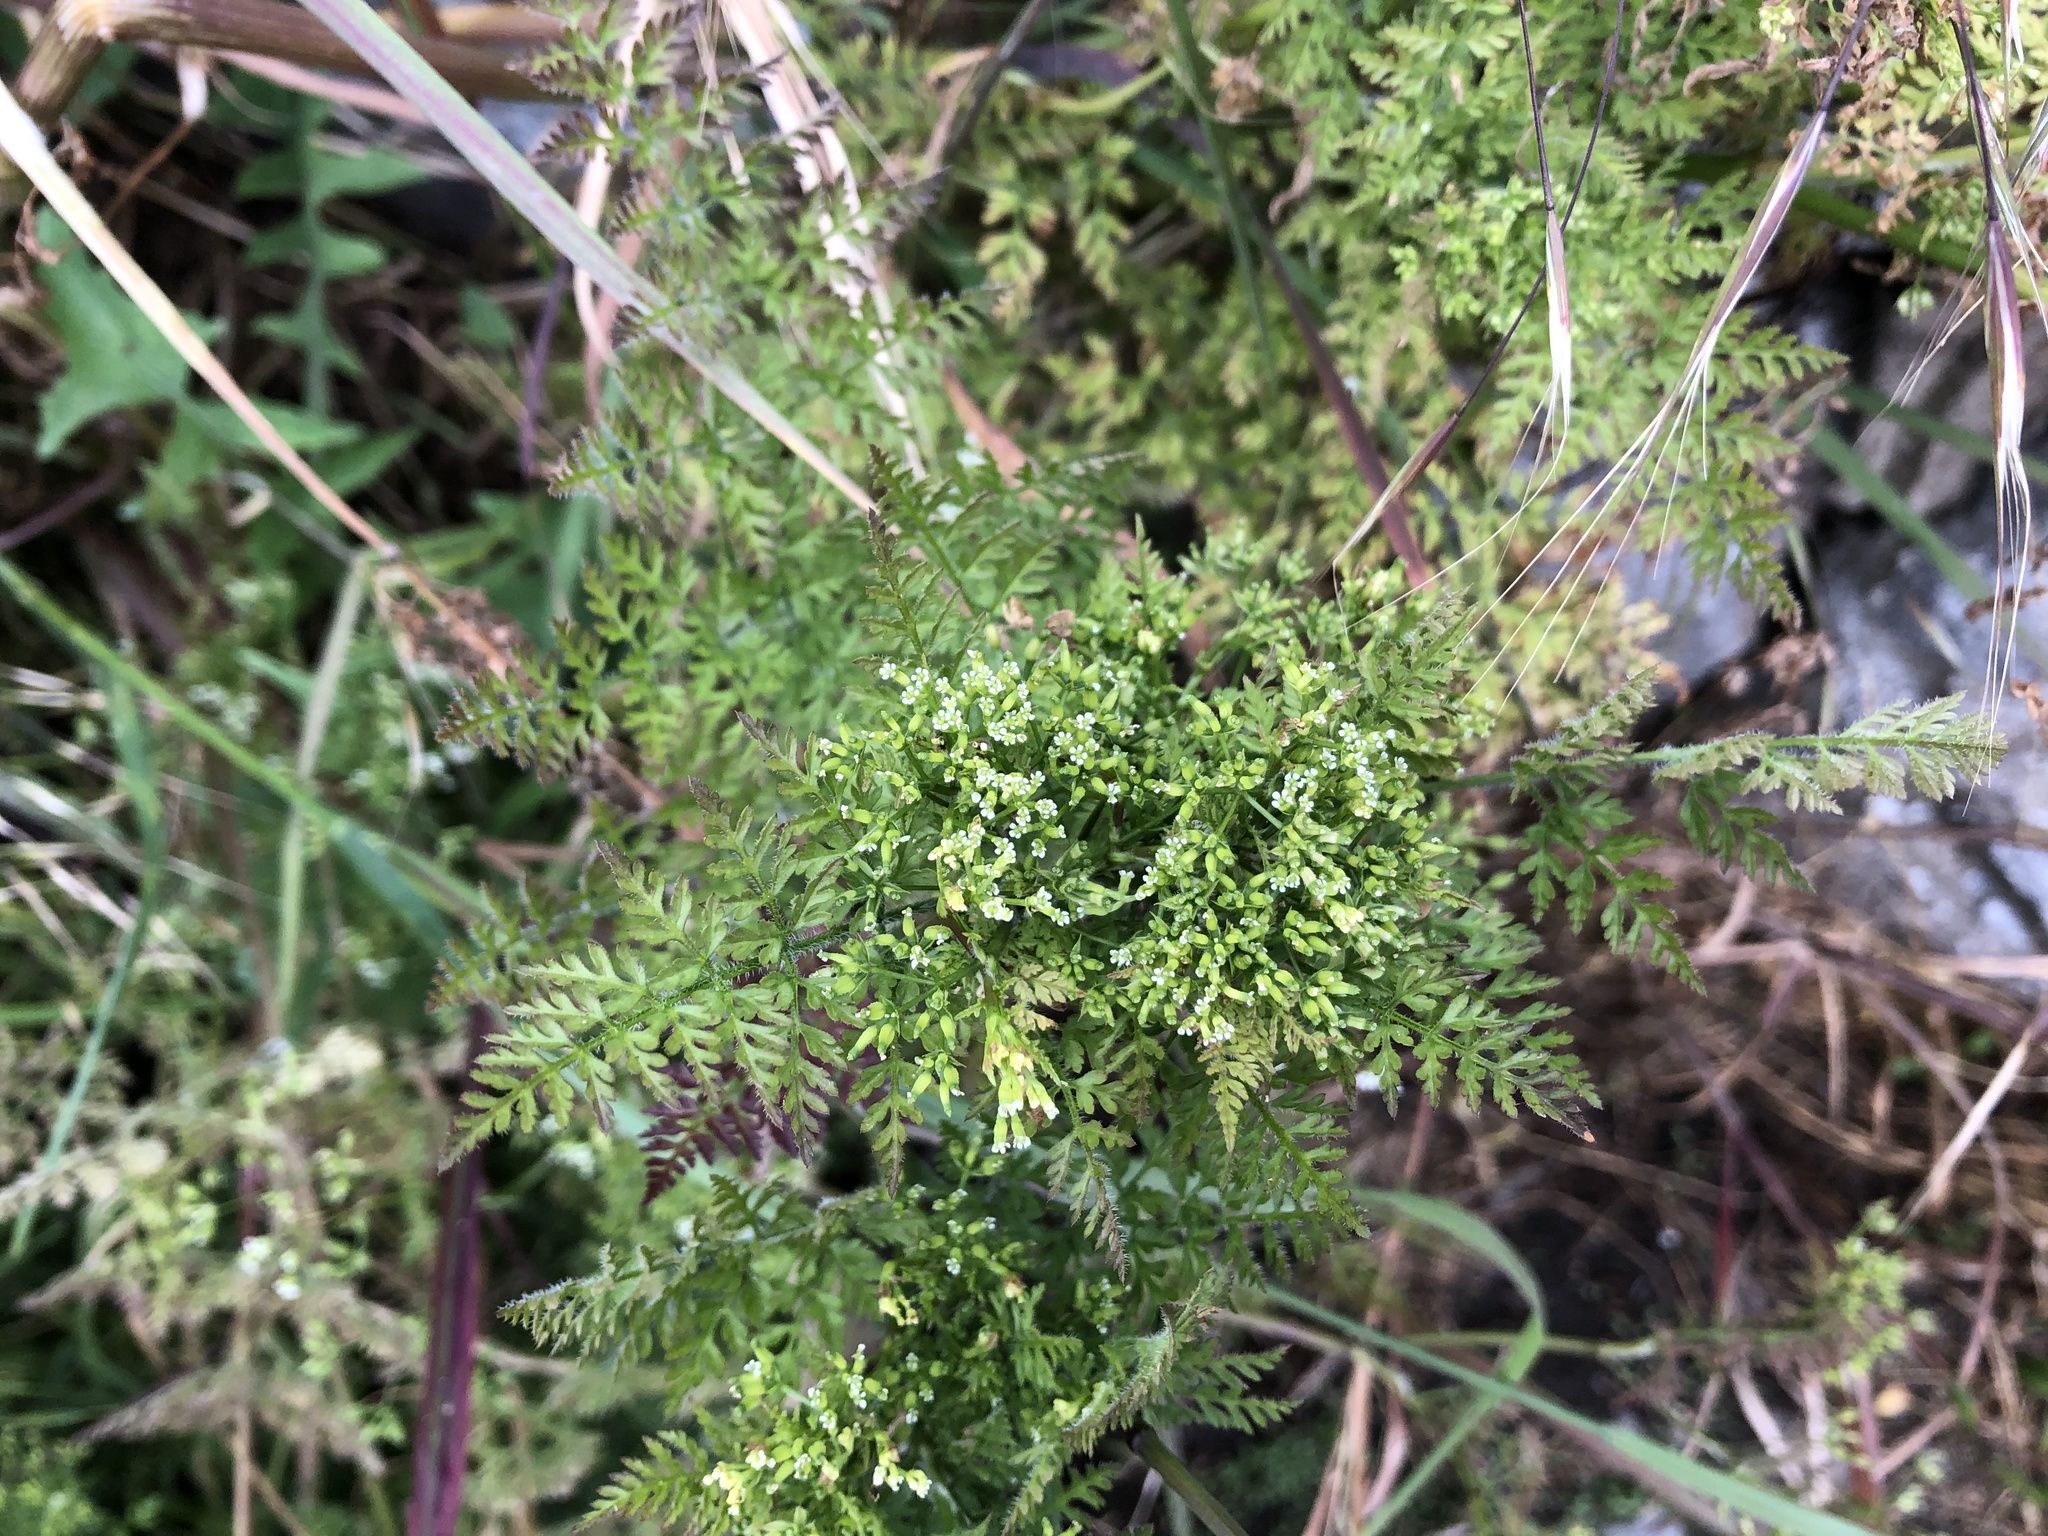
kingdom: Plantae
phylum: Tracheophyta
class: Magnoliopsida
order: Apiales
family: Apiaceae
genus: Anthriscus
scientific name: Anthriscus caucalis
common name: Bur chervil
